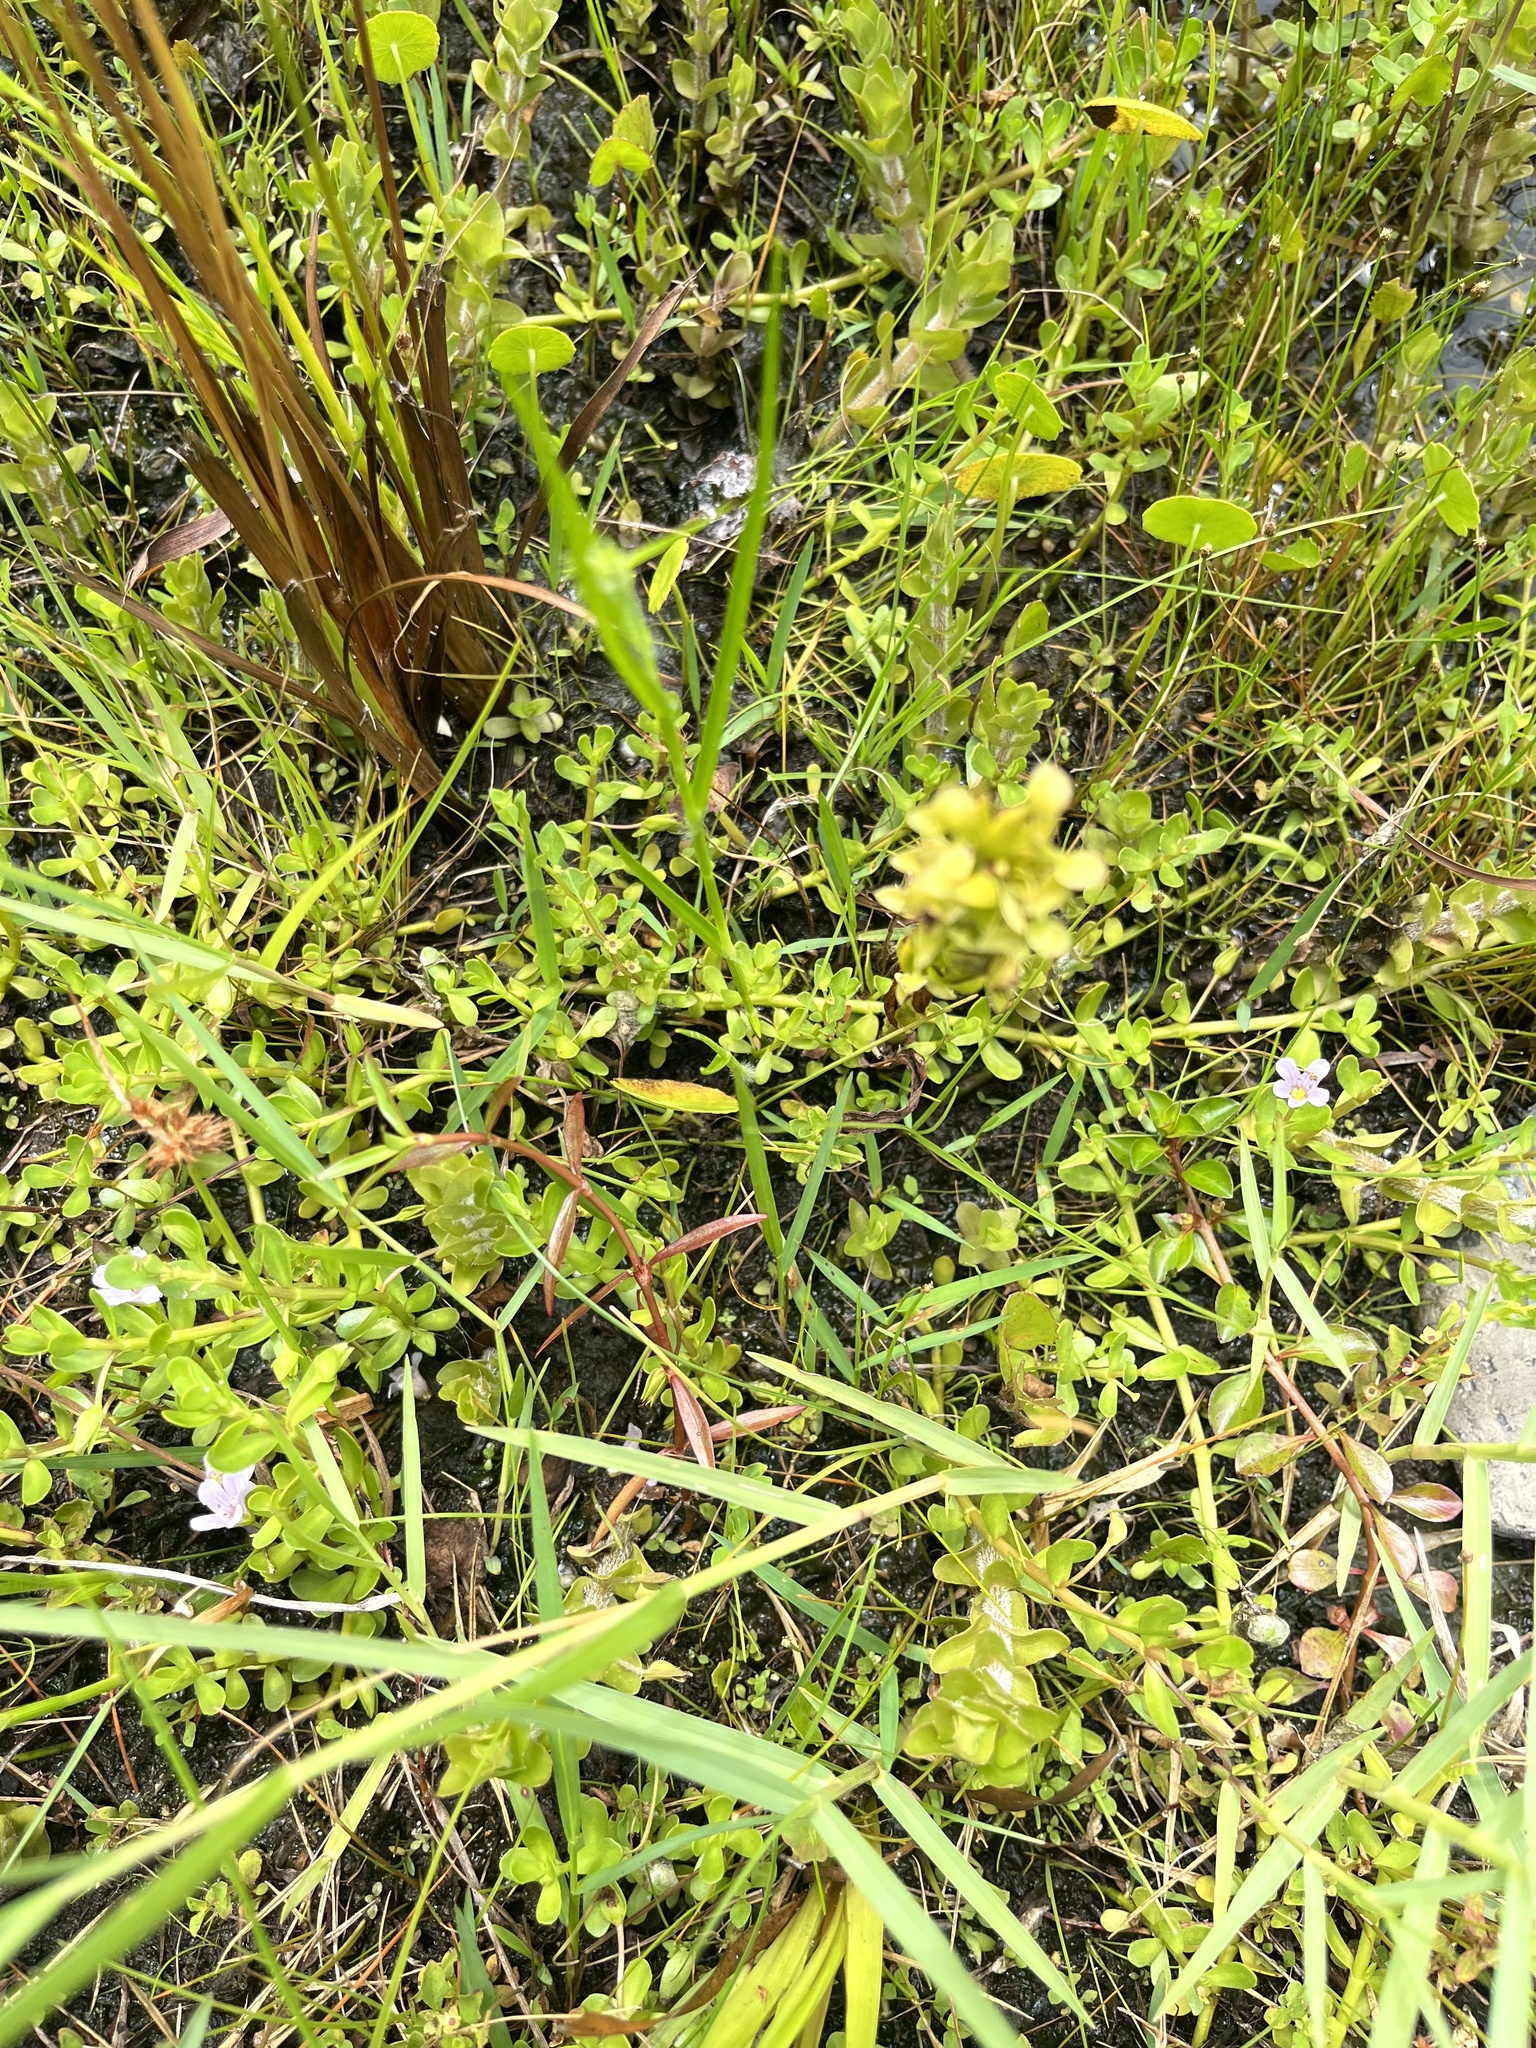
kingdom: Plantae
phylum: Tracheophyta
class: Liliopsida
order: Asparagales
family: Orchidaceae
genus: Habenaria
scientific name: Habenaria repens
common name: Water orchid
